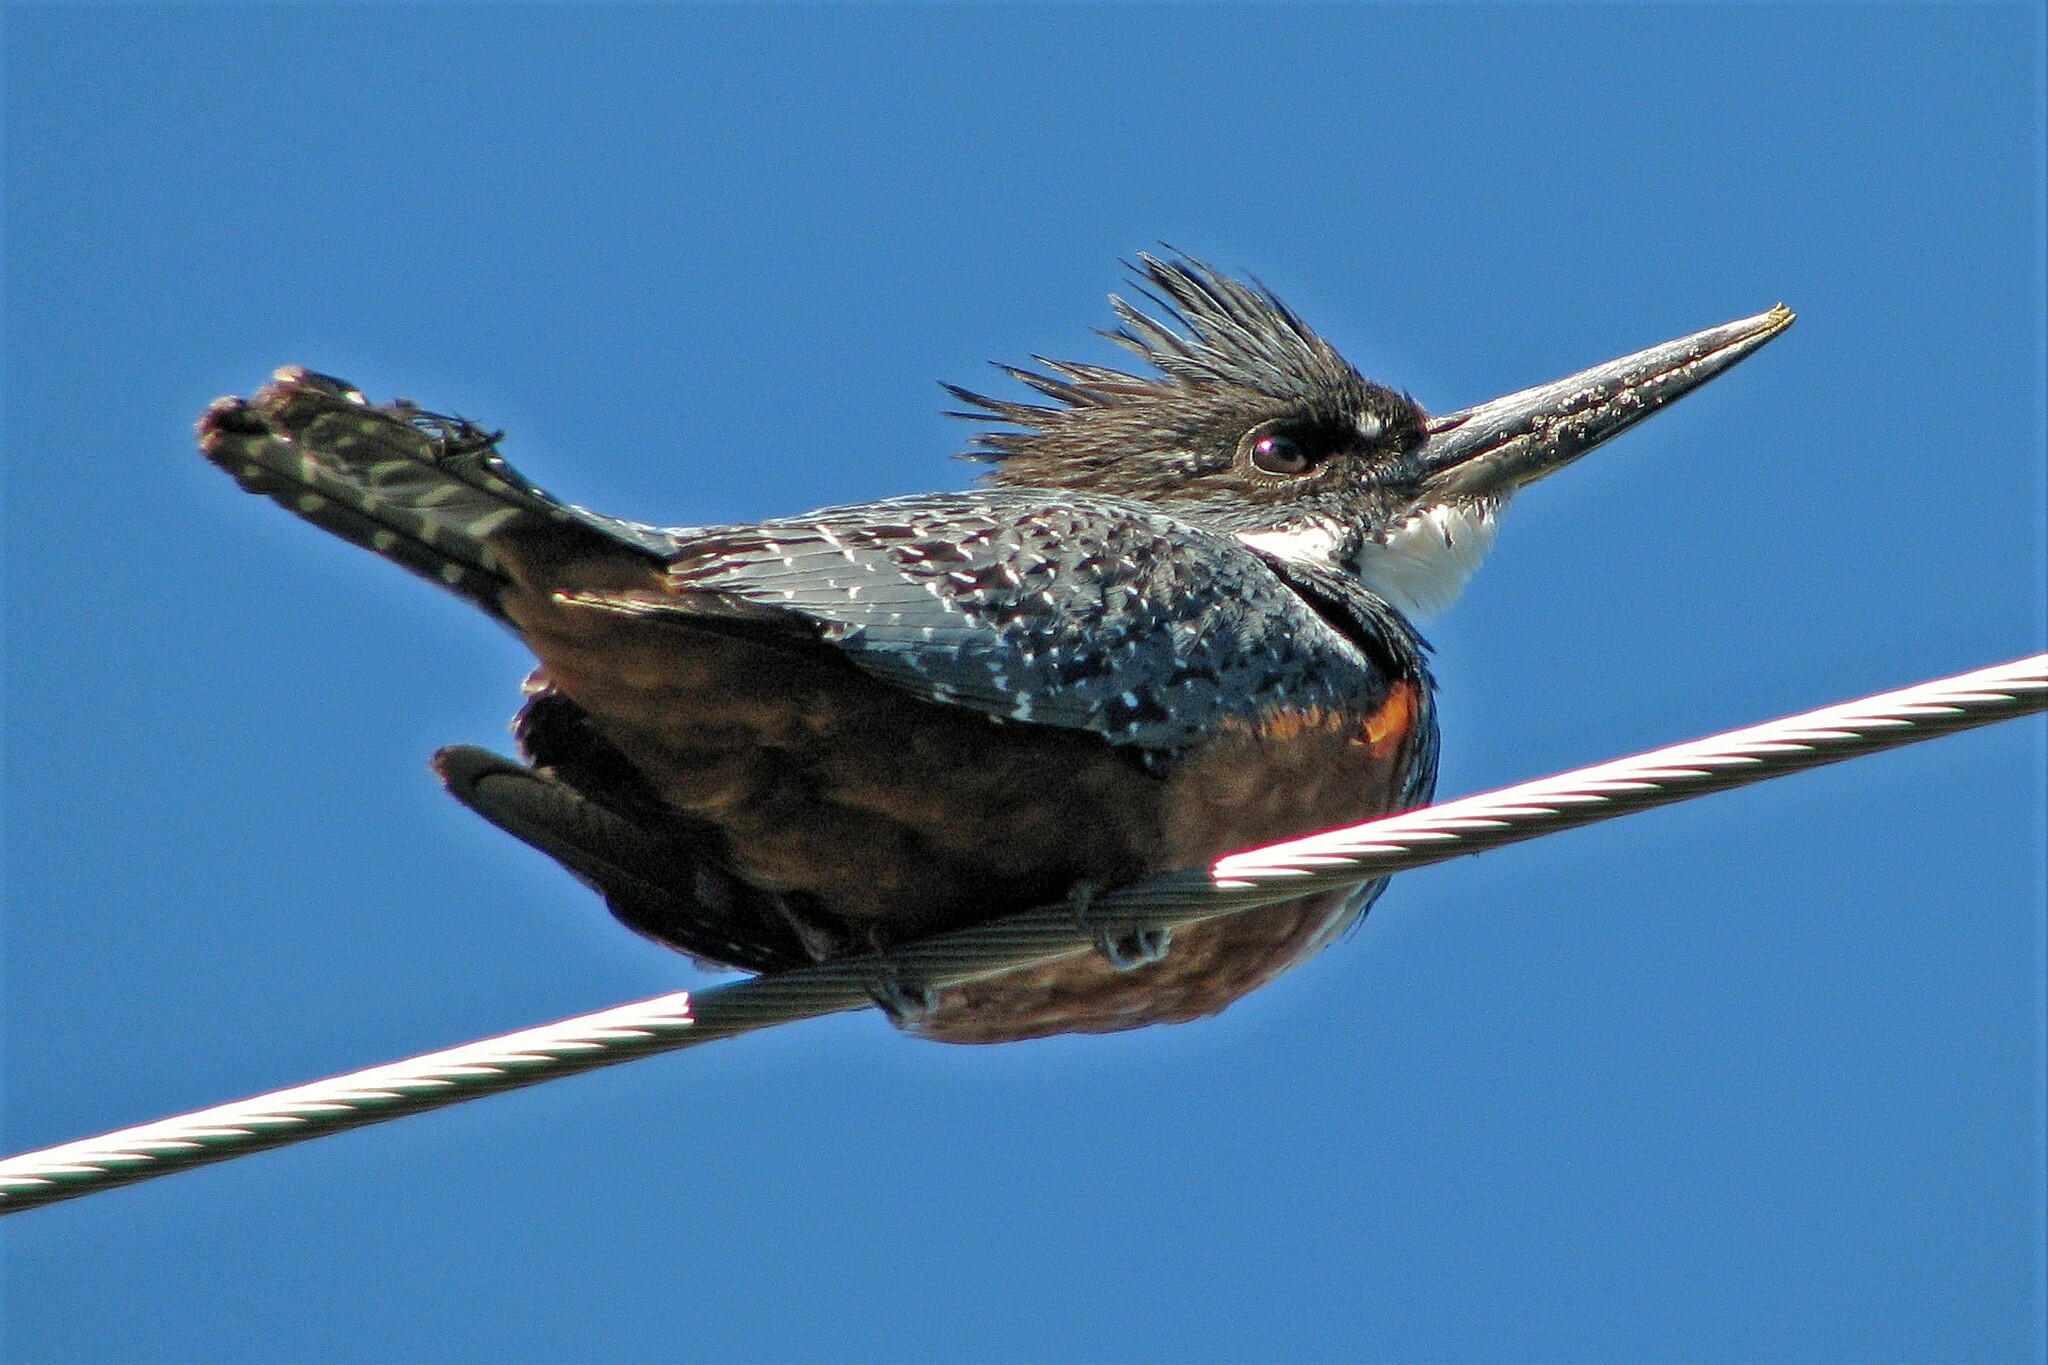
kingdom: Animalia
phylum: Chordata
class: Aves
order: Coraciiformes
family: Alcedinidae
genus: Megaceryle
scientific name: Megaceryle torquata
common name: Ringed kingfisher
